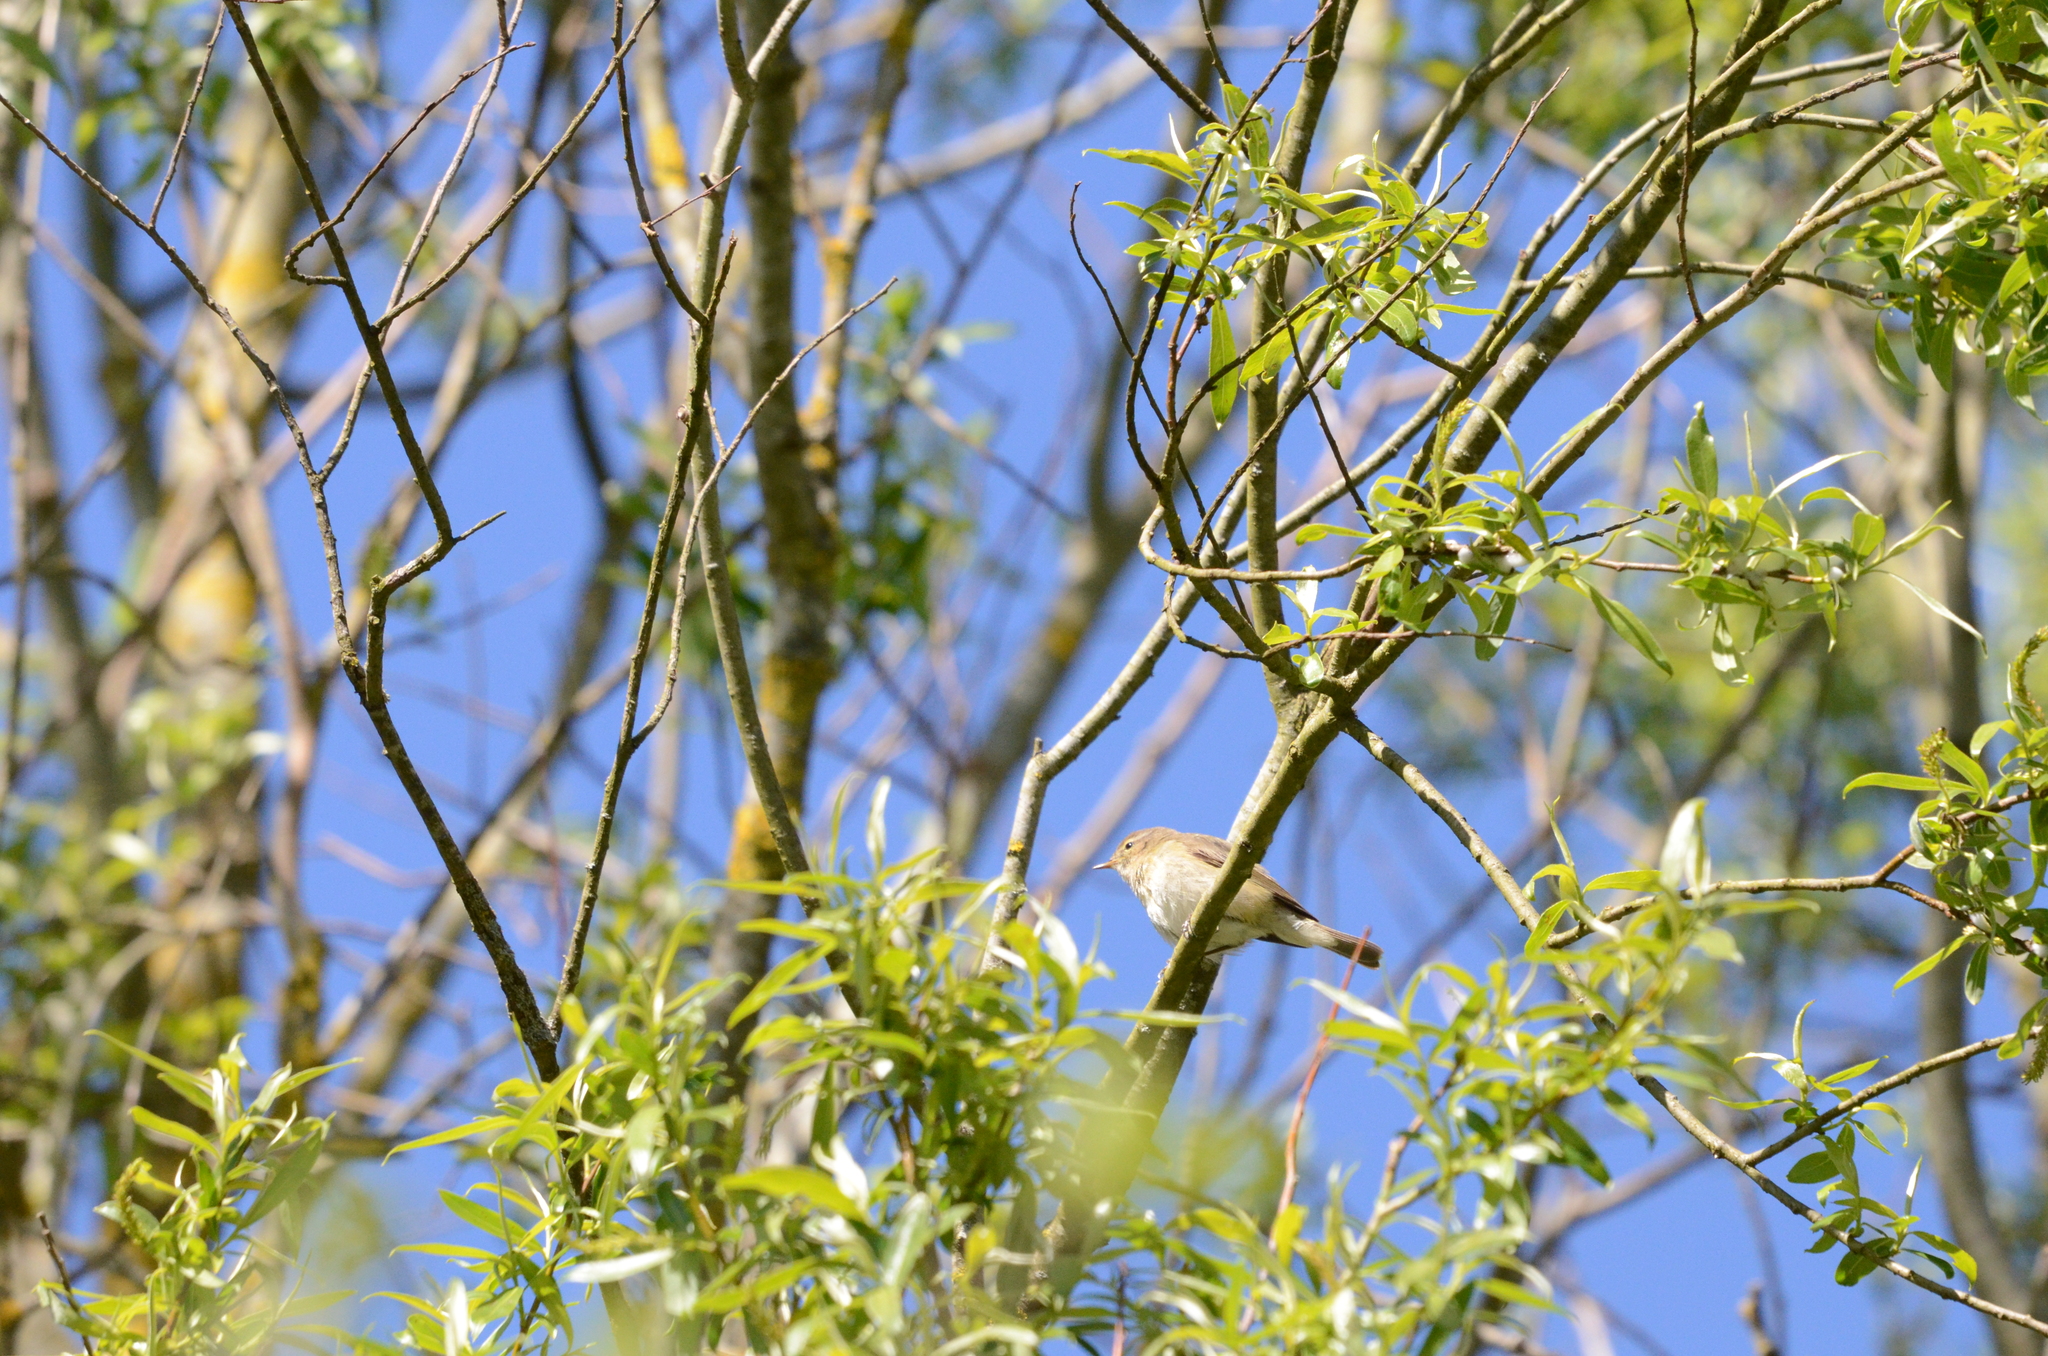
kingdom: Animalia
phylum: Chordata
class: Aves
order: Passeriformes
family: Phylloscopidae
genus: Phylloscopus
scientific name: Phylloscopus collybita
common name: Common chiffchaff
